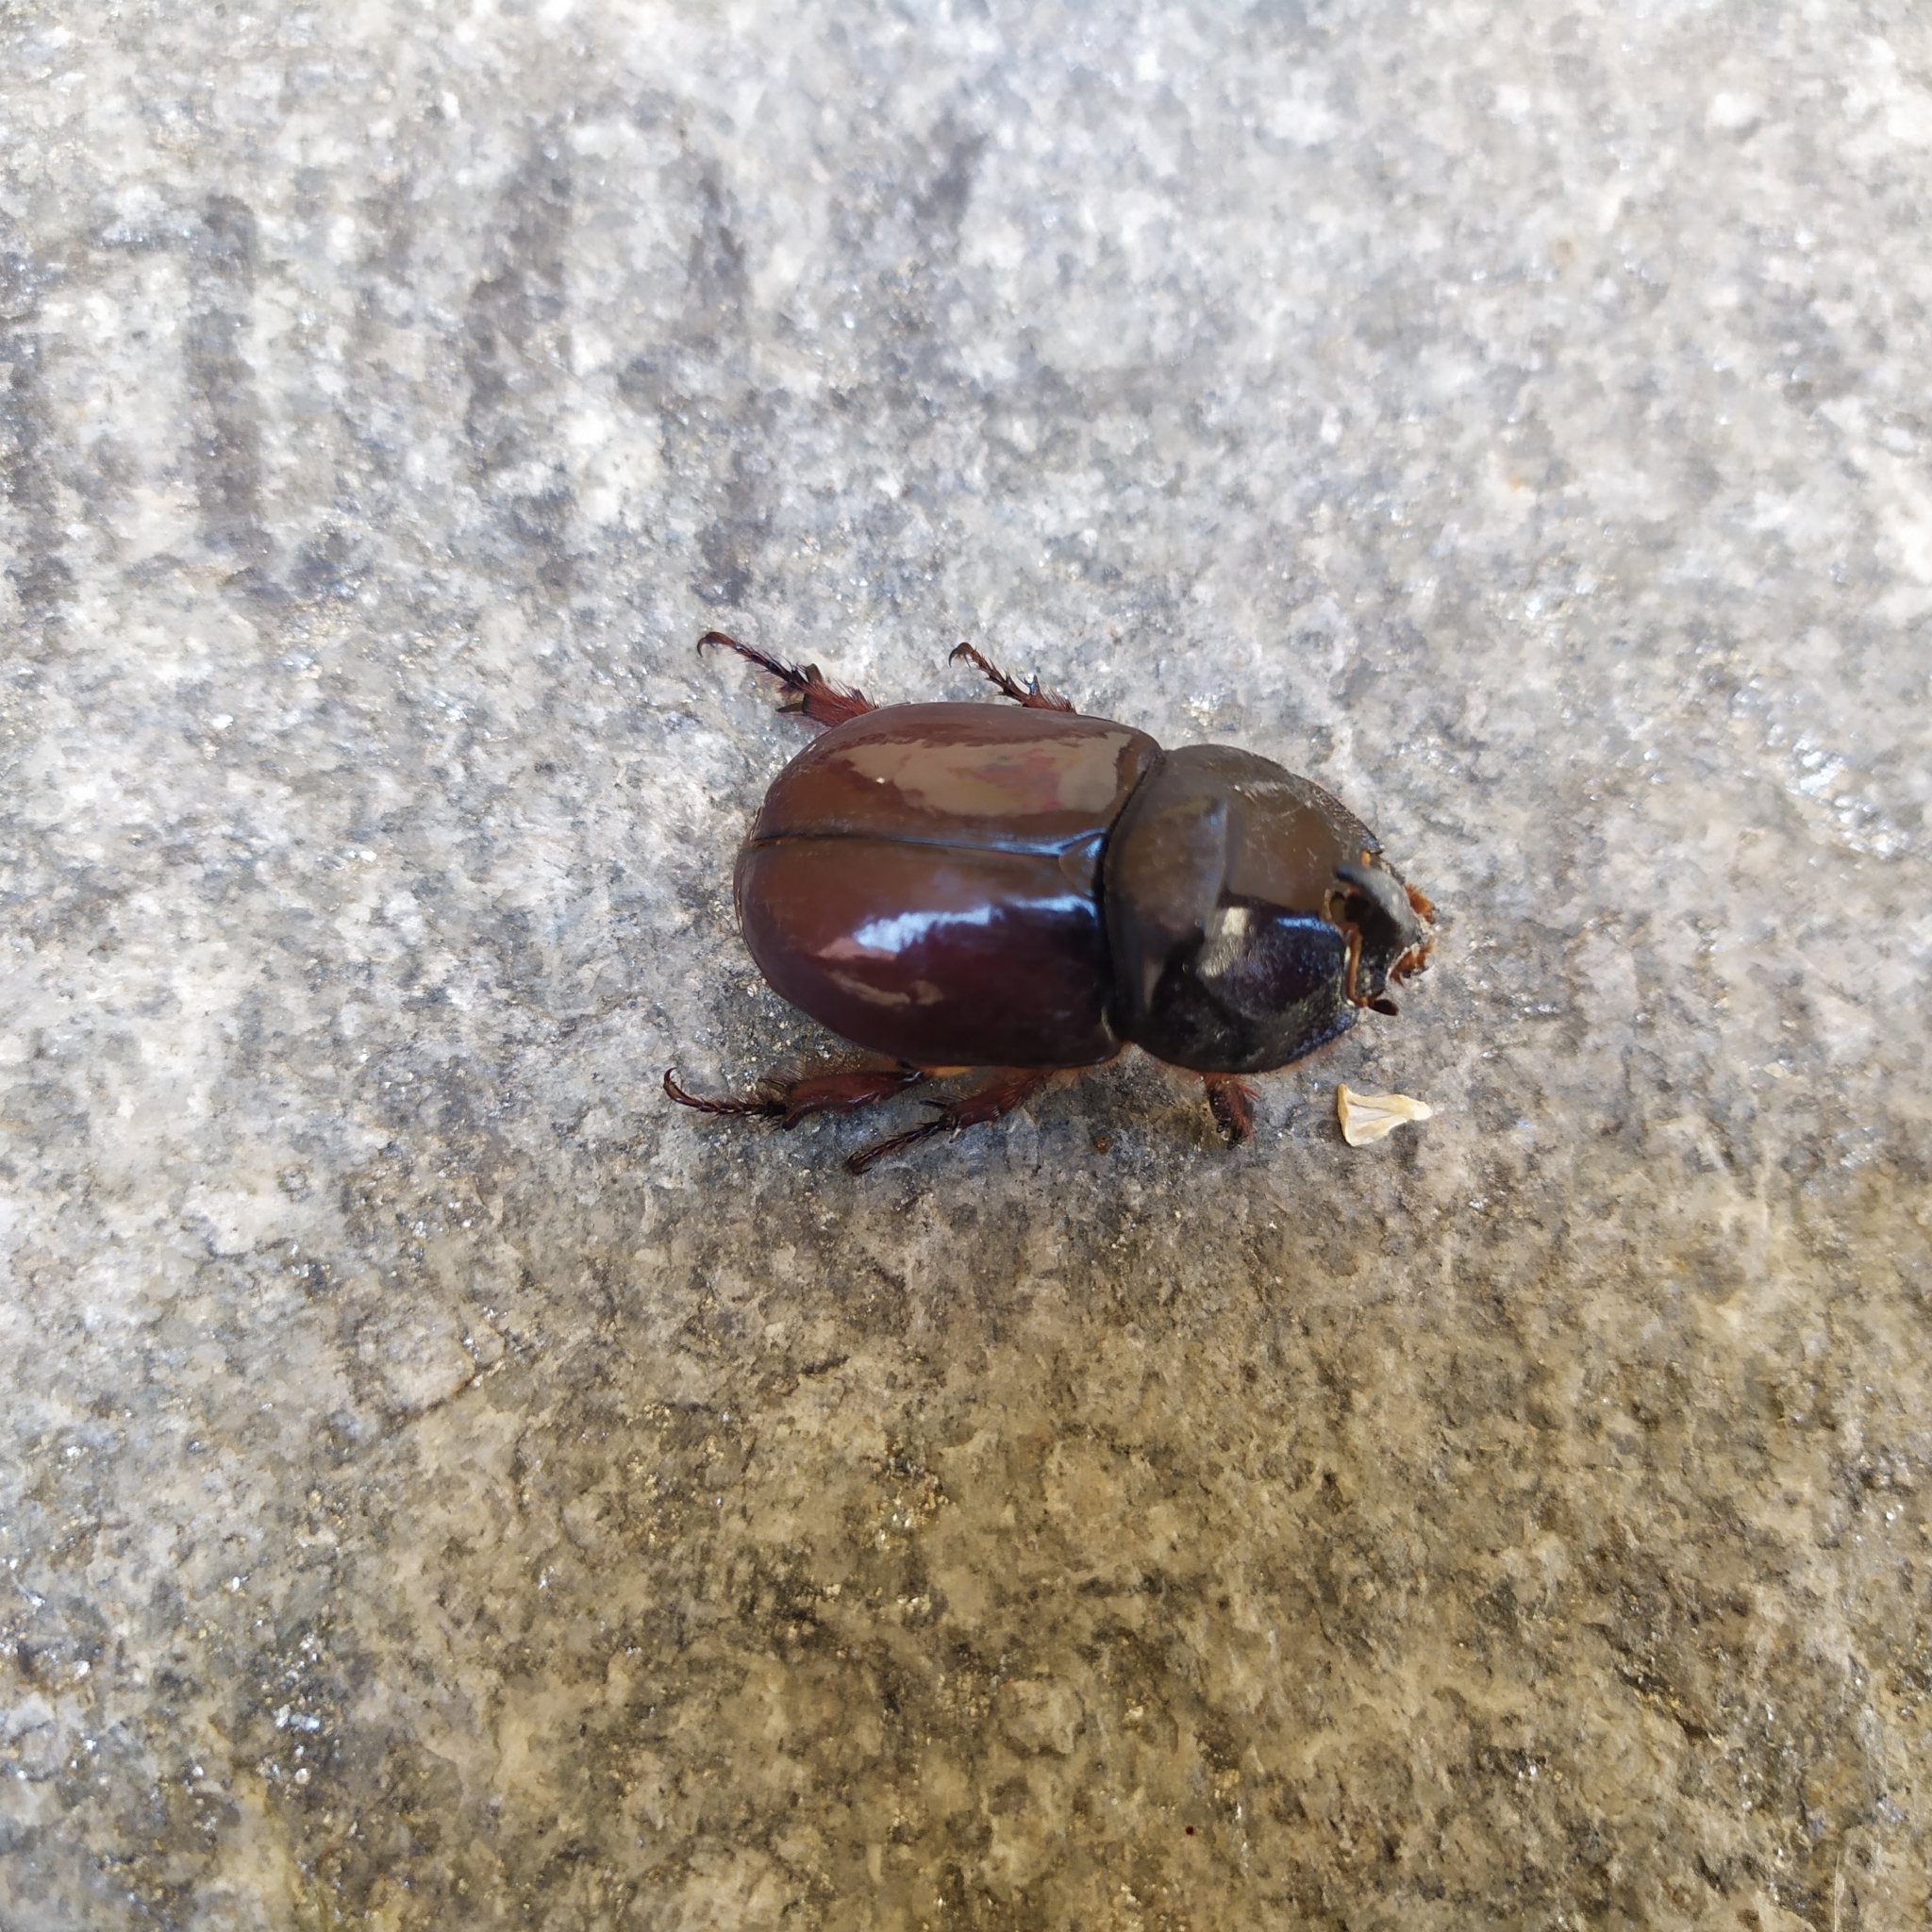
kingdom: Animalia
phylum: Arthropoda
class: Insecta
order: Coleoptera
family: Scarabaeidae
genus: Oryctes
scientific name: Oryctes nasicornis
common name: European rhinoceros beetle
